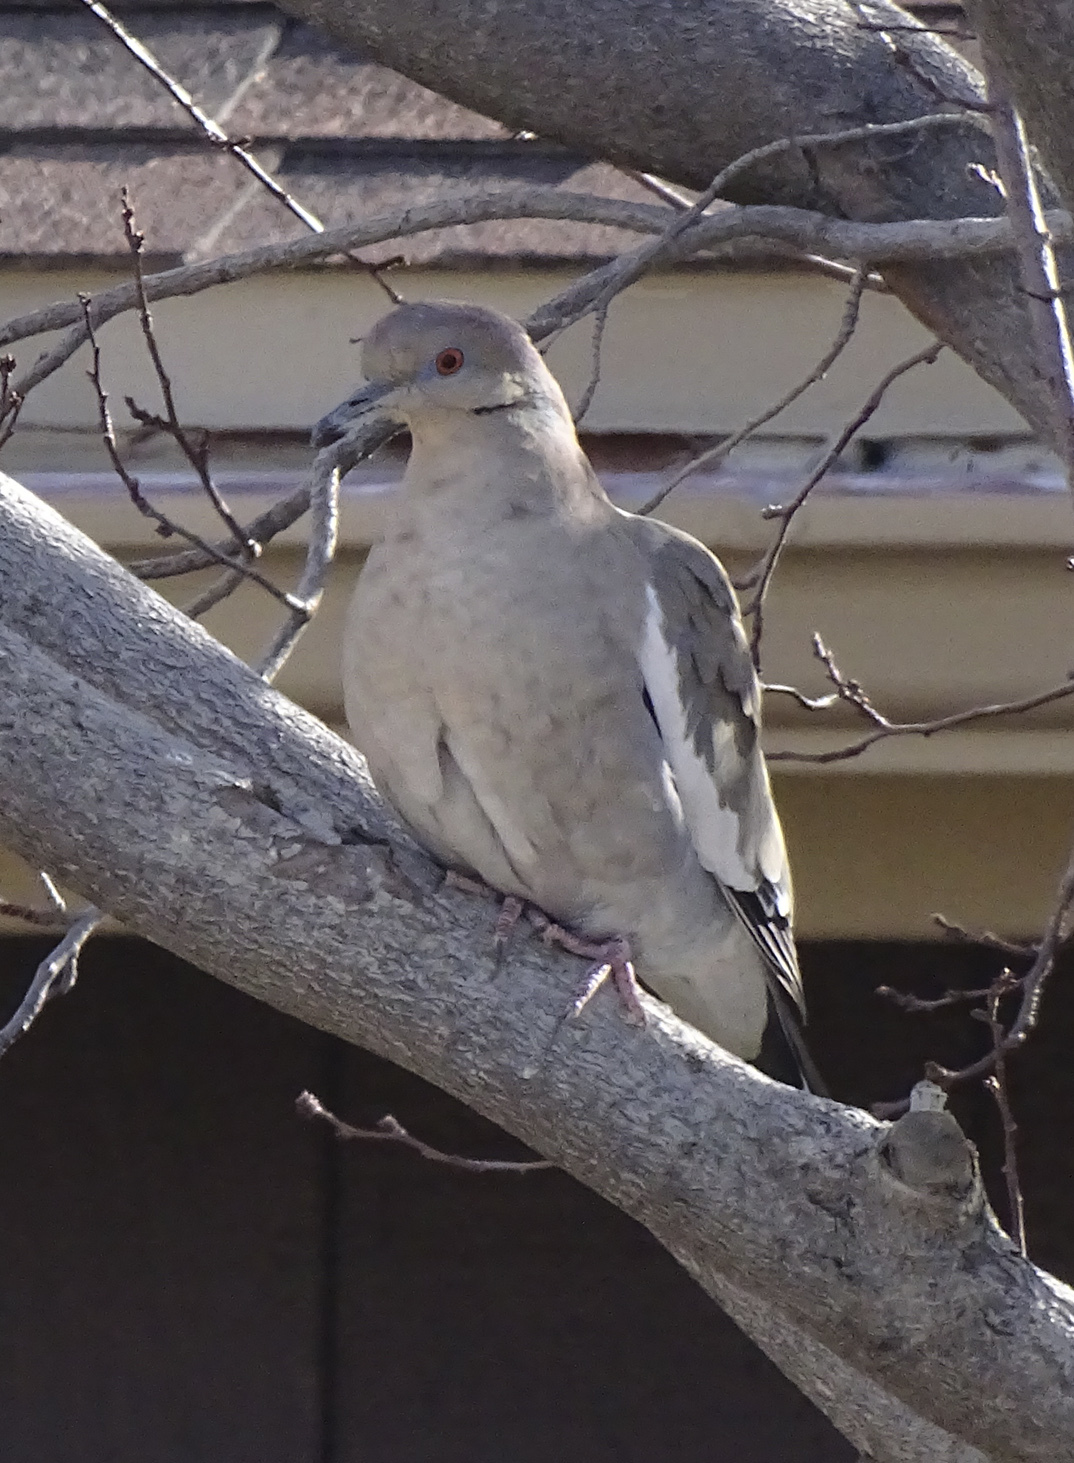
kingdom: Animalia
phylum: Chordata
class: Aves
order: Columbiformes
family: Columbidae
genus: Zenaida
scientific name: Zenaida asiatica
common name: White-winged dove
